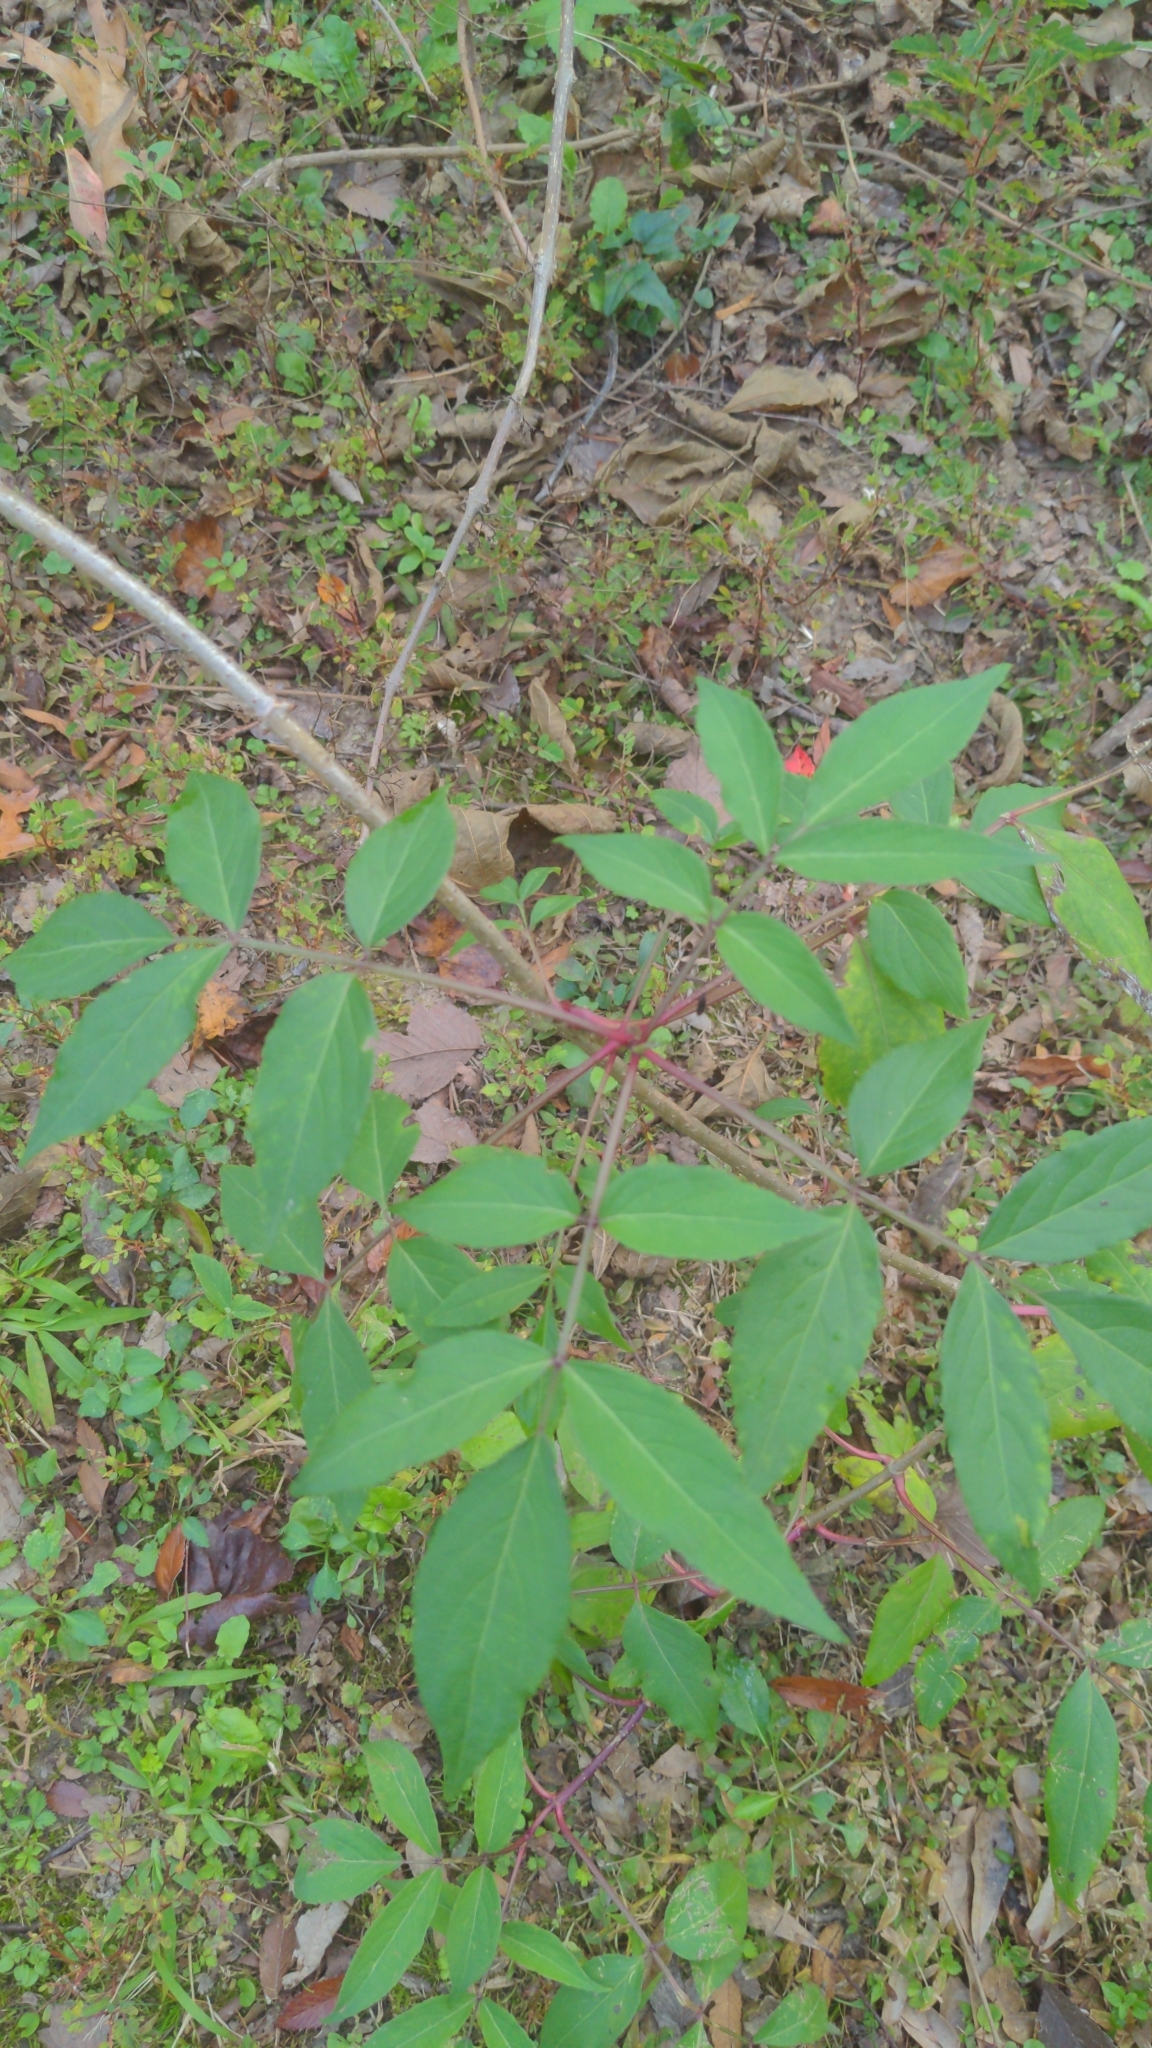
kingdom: Plantae
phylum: Tracheophyta
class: Magnoliopsida
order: Dipsacales
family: Viburnaceae
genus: Sambucus
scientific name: Sambucus canadensis
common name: American elder
